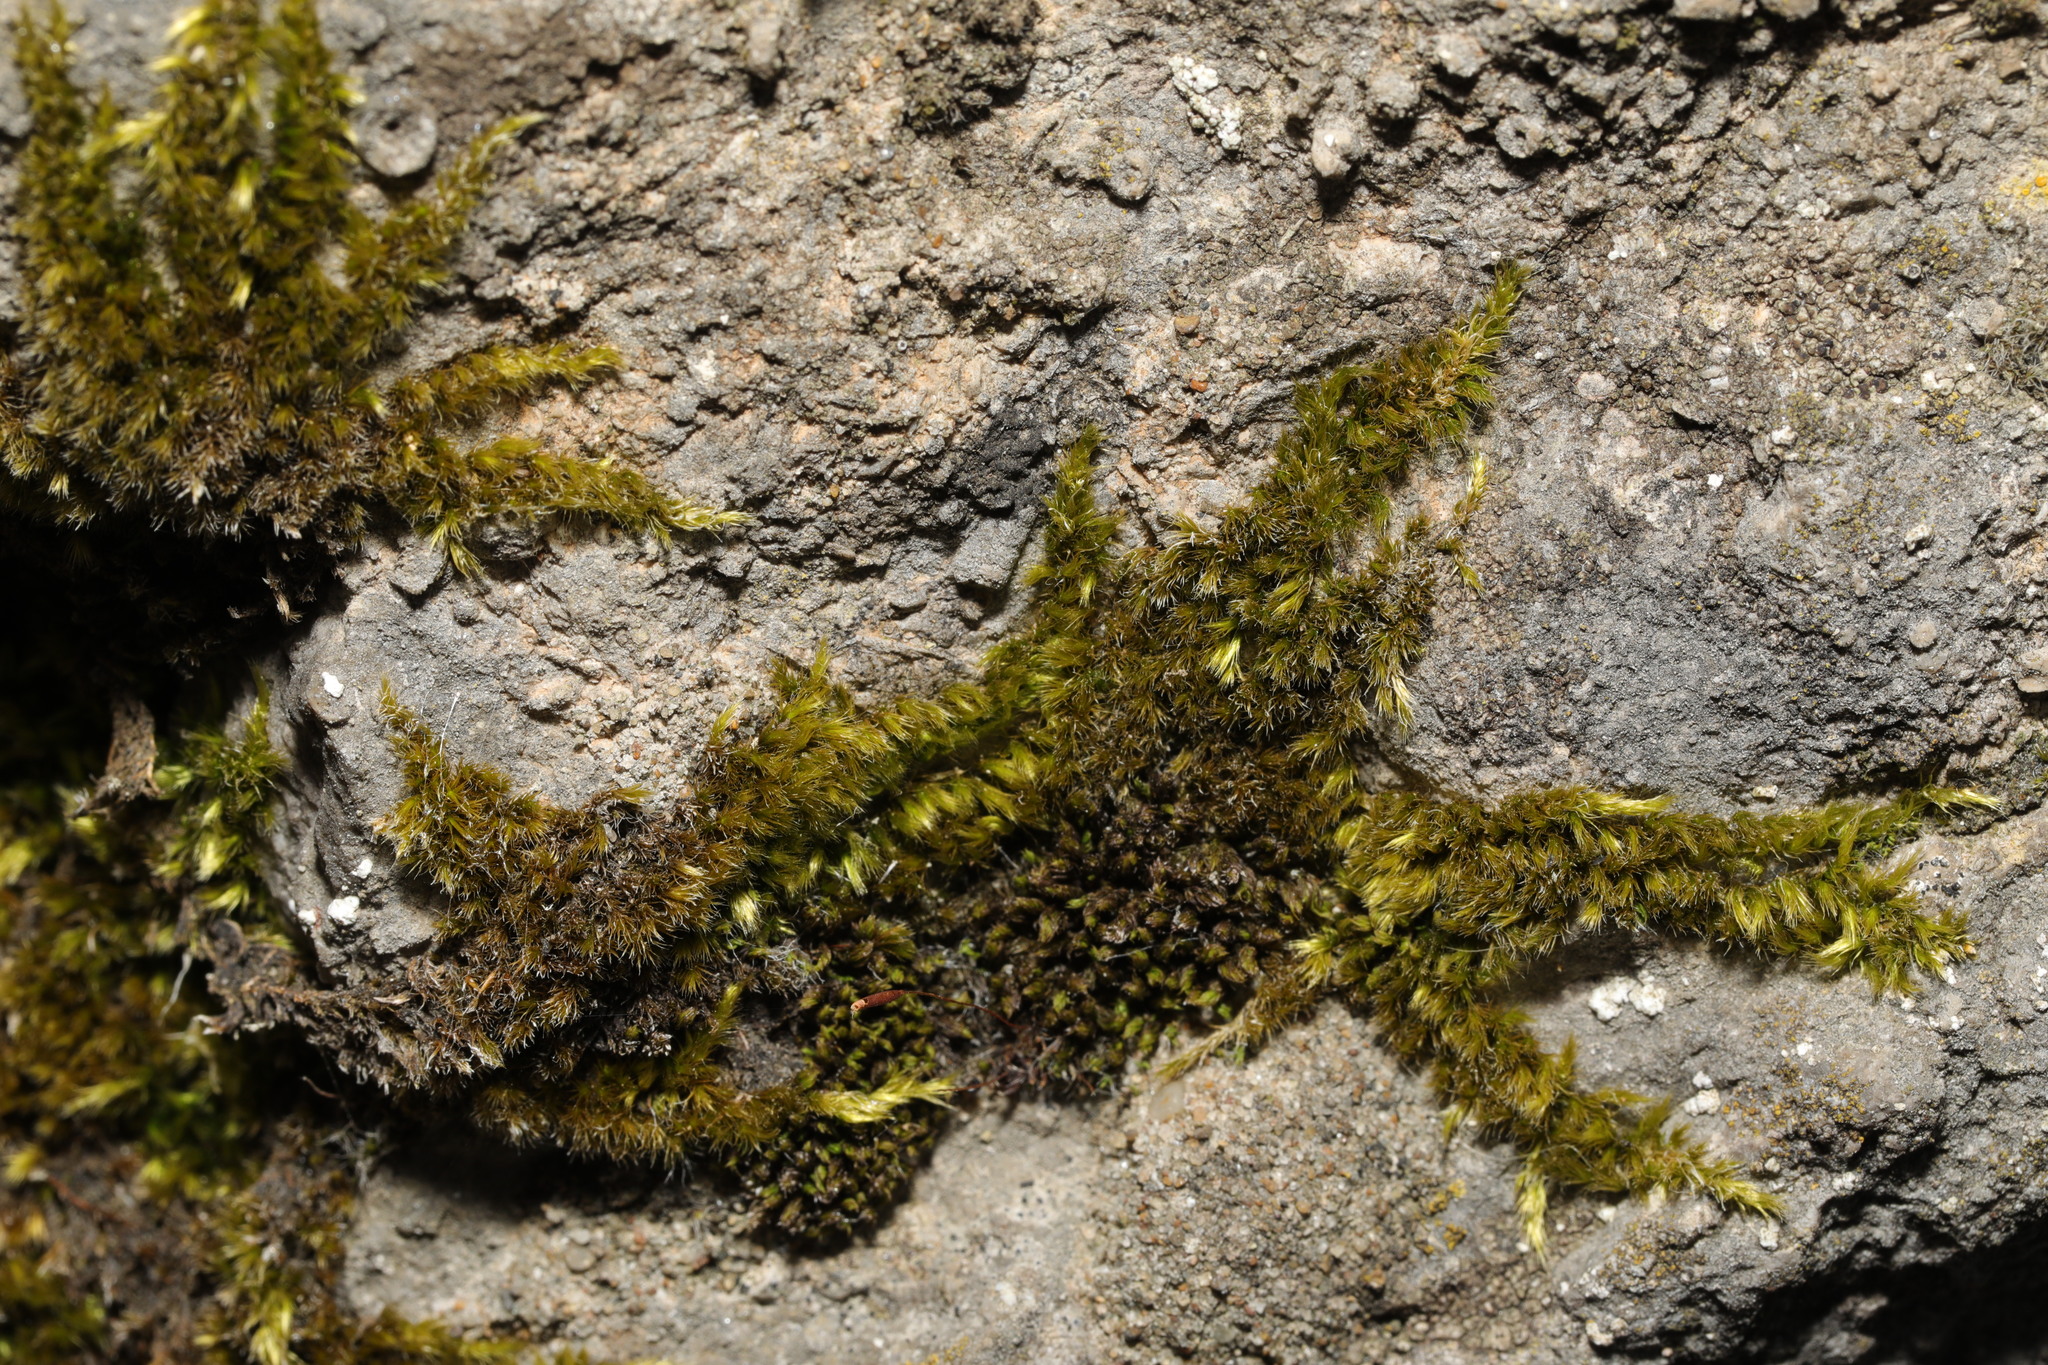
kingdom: Plantae
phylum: Bryophyta
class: Bryopsida
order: Hypnales
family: Brachytheciaceae
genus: Homalothecium
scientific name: Homalothecium sericeum
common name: Silky wall feather-moss
